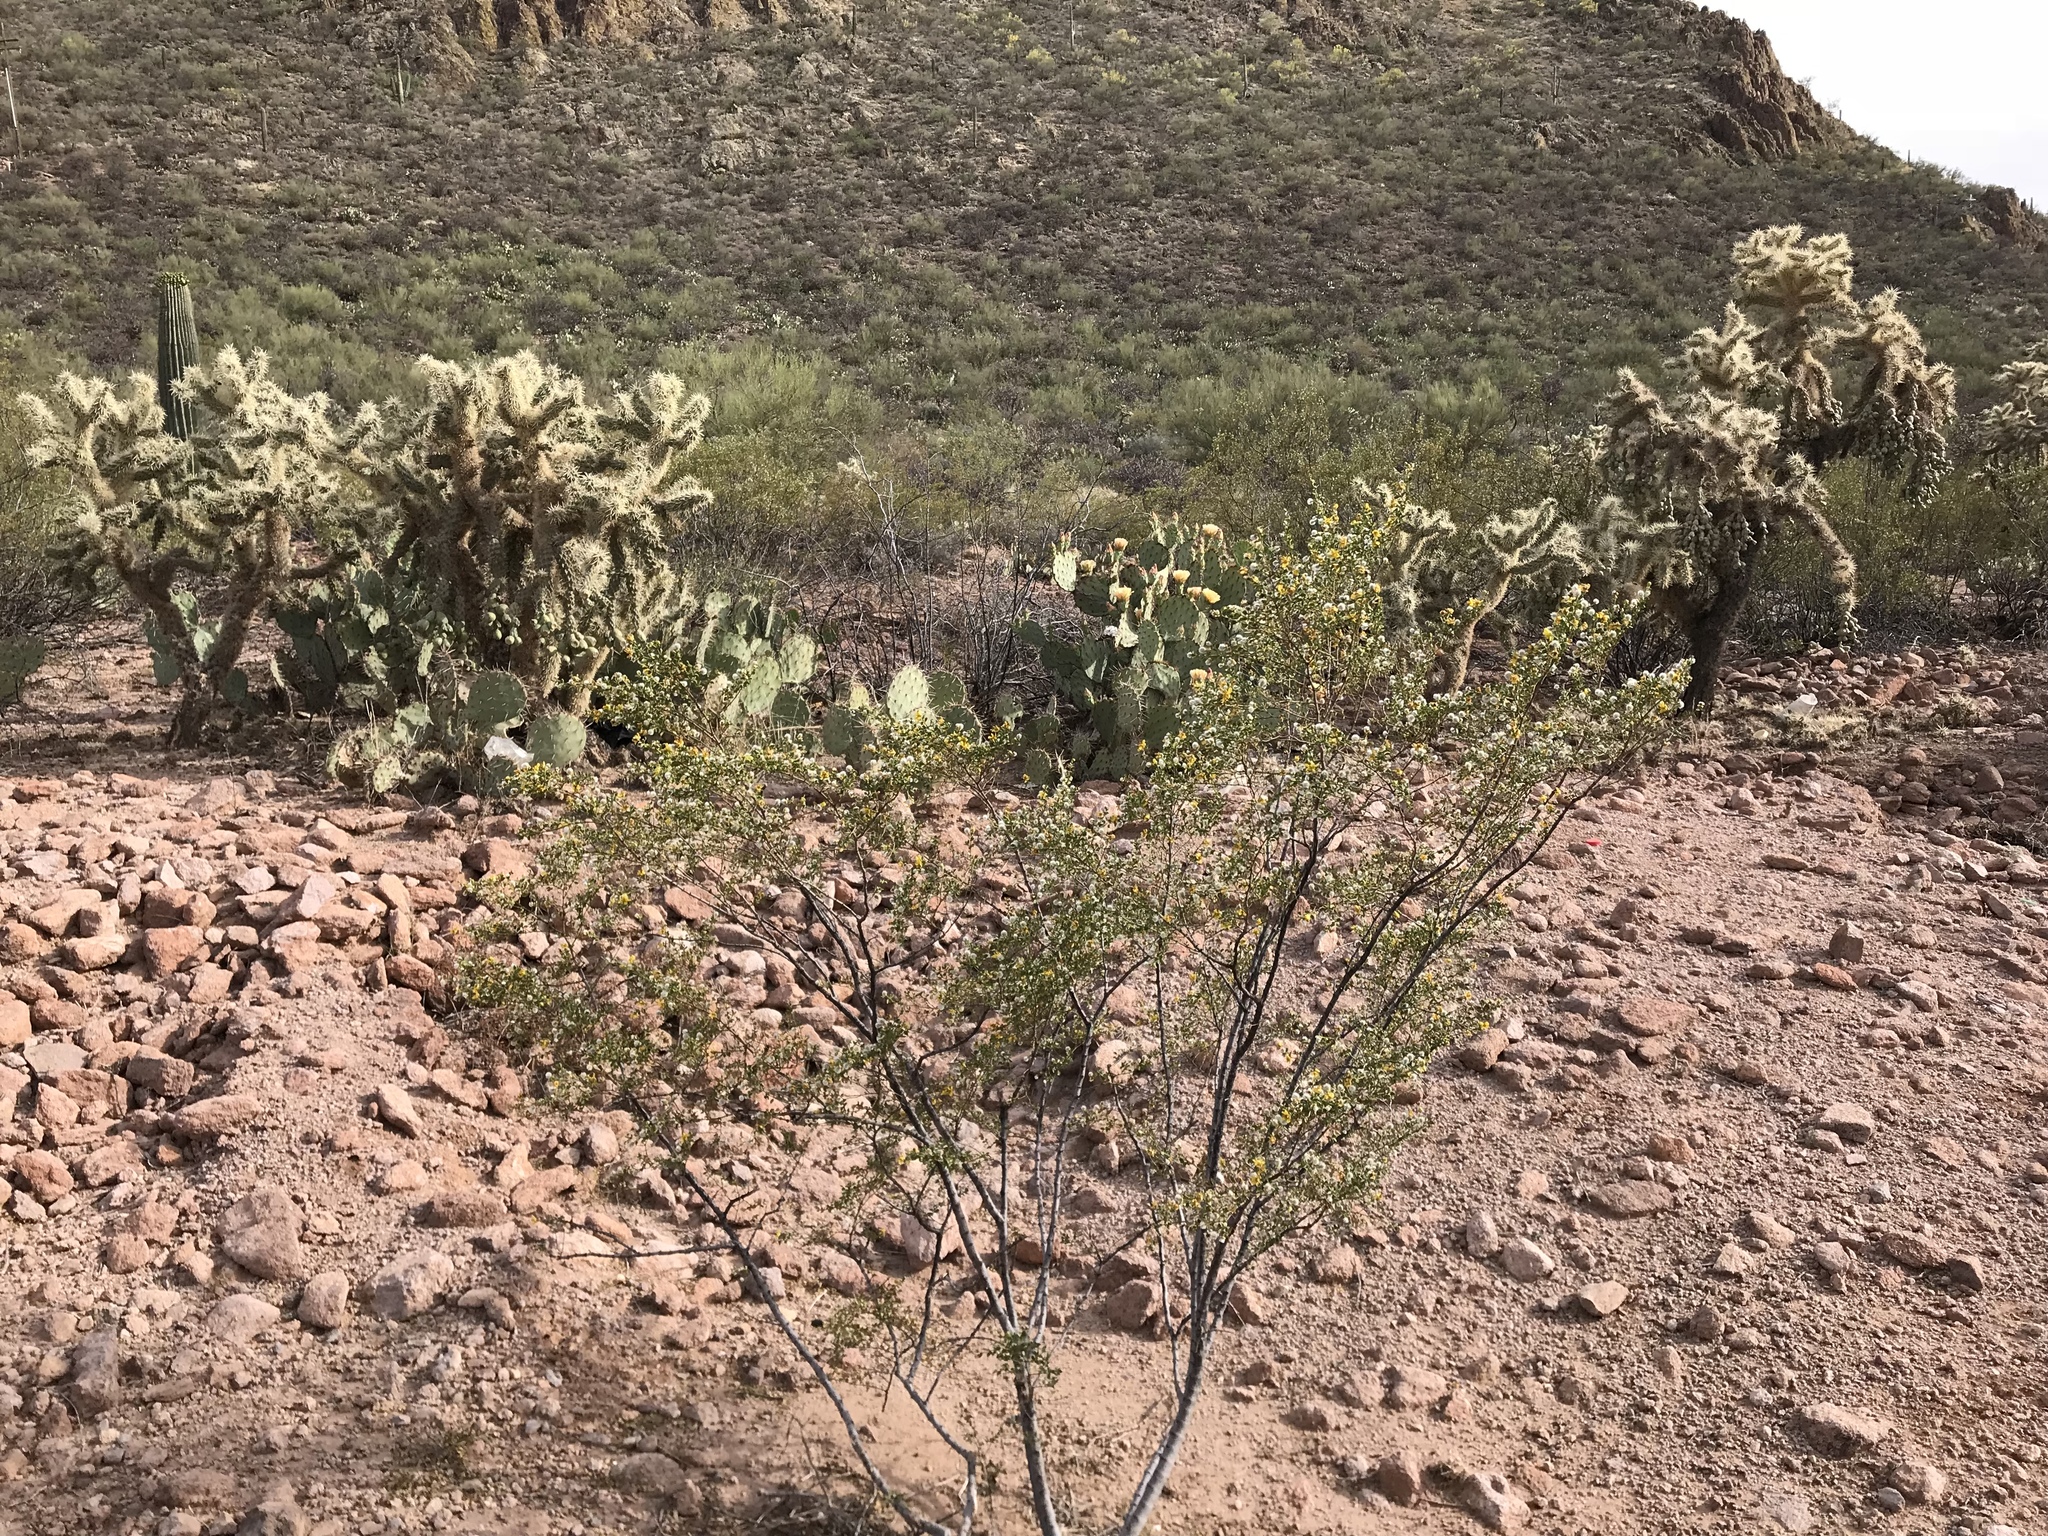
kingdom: Plantae
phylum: Tracheophyta
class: Magnoliopsida
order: Zygophyllales
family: Zygophyllaceae
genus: Larrea
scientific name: Larrea tridentata
